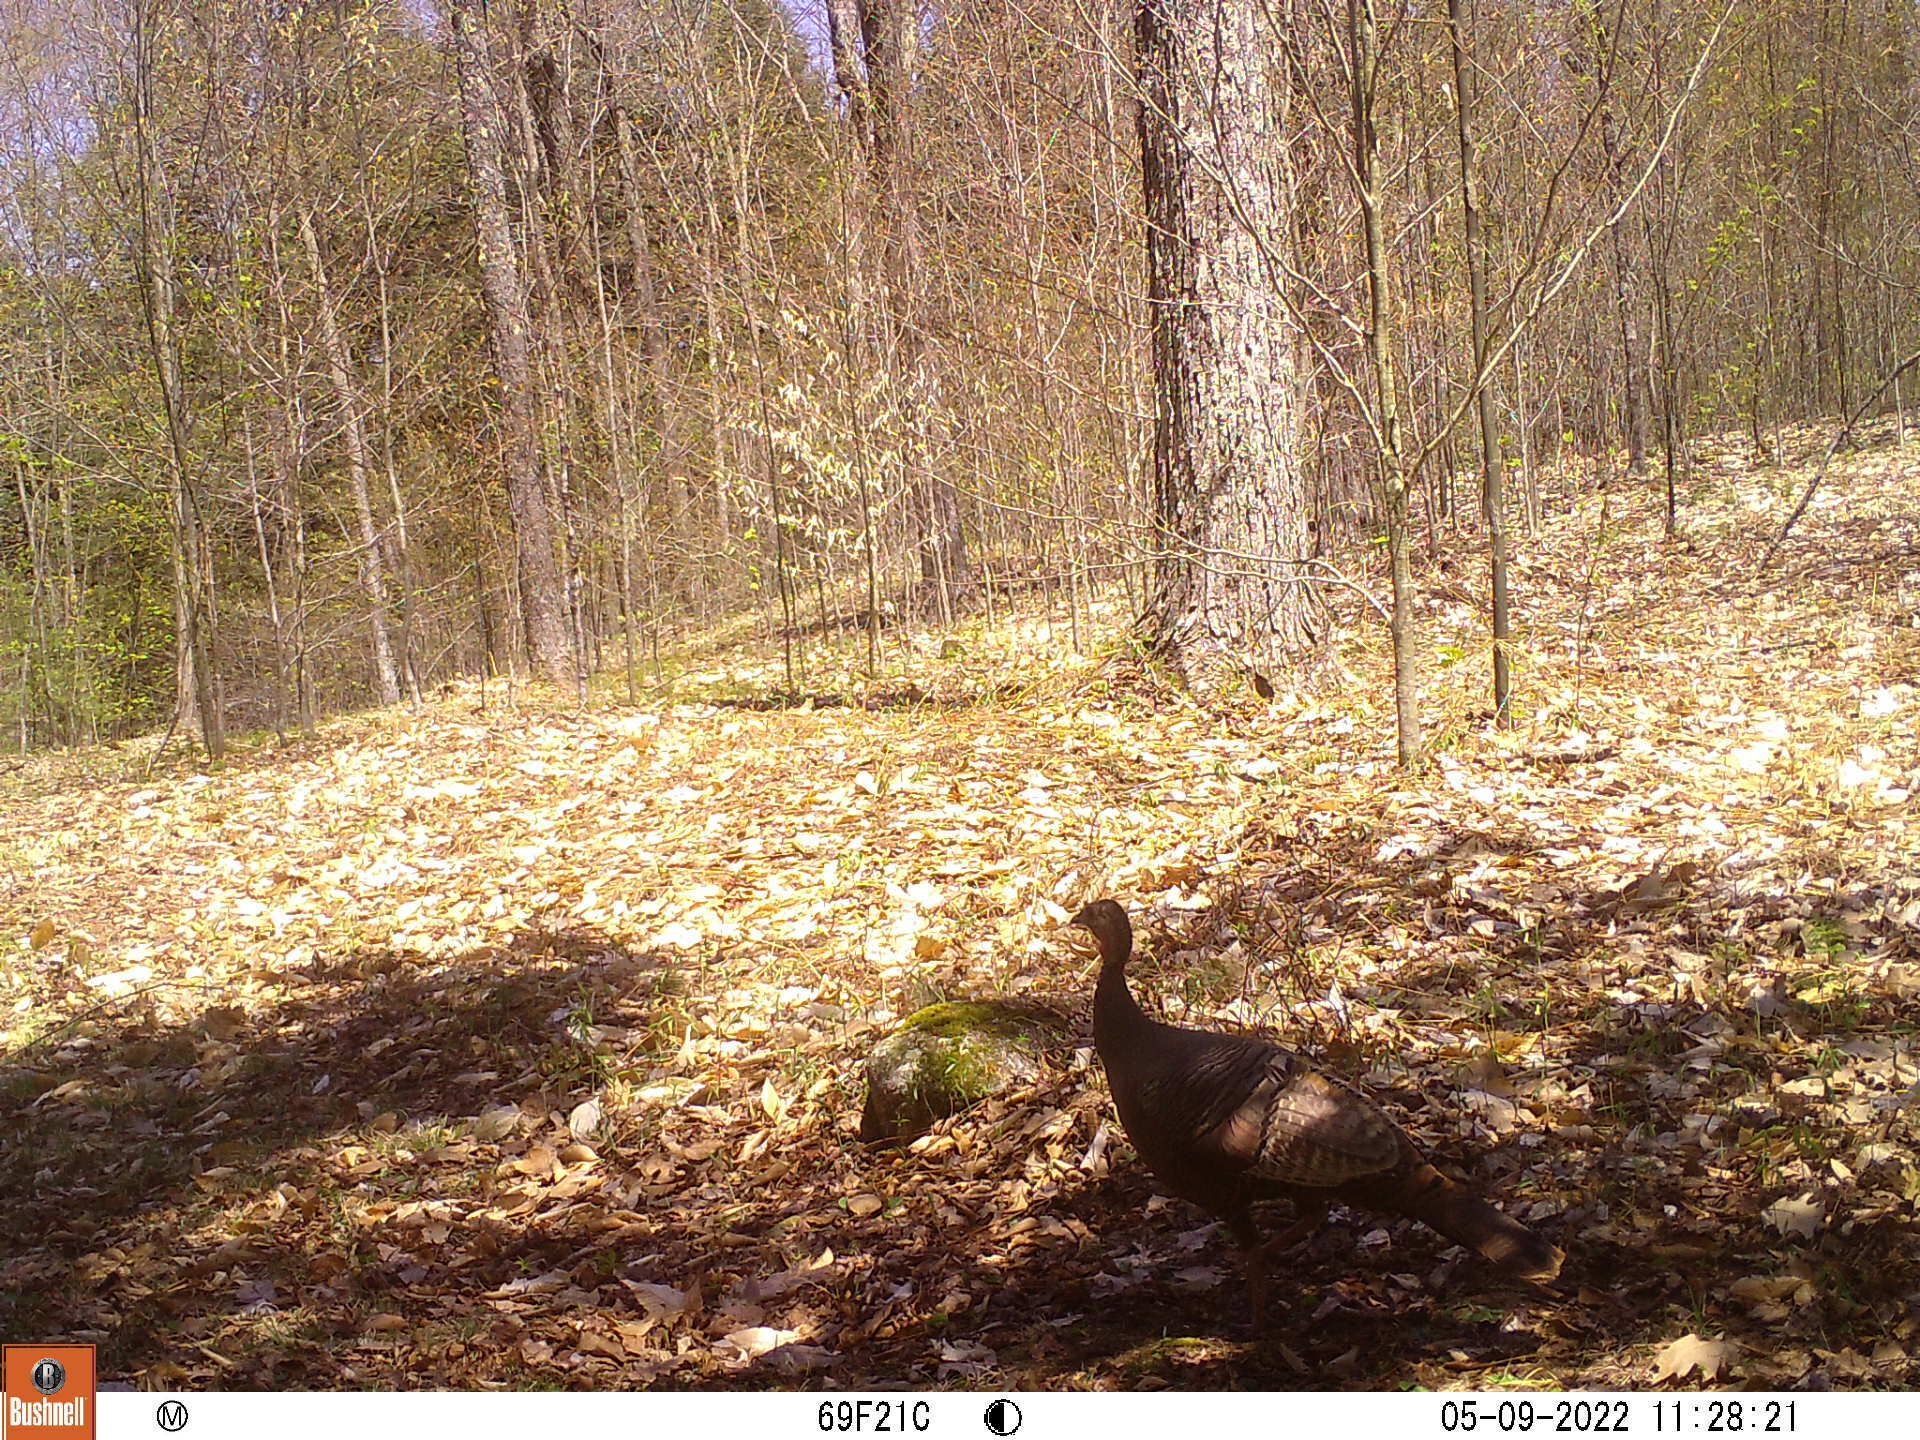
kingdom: Animalia
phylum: Chordata
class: Aves
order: Galliformes
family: Phasianidae
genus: Meleagris
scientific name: Meleagris gallopavo
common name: Wild turkey
